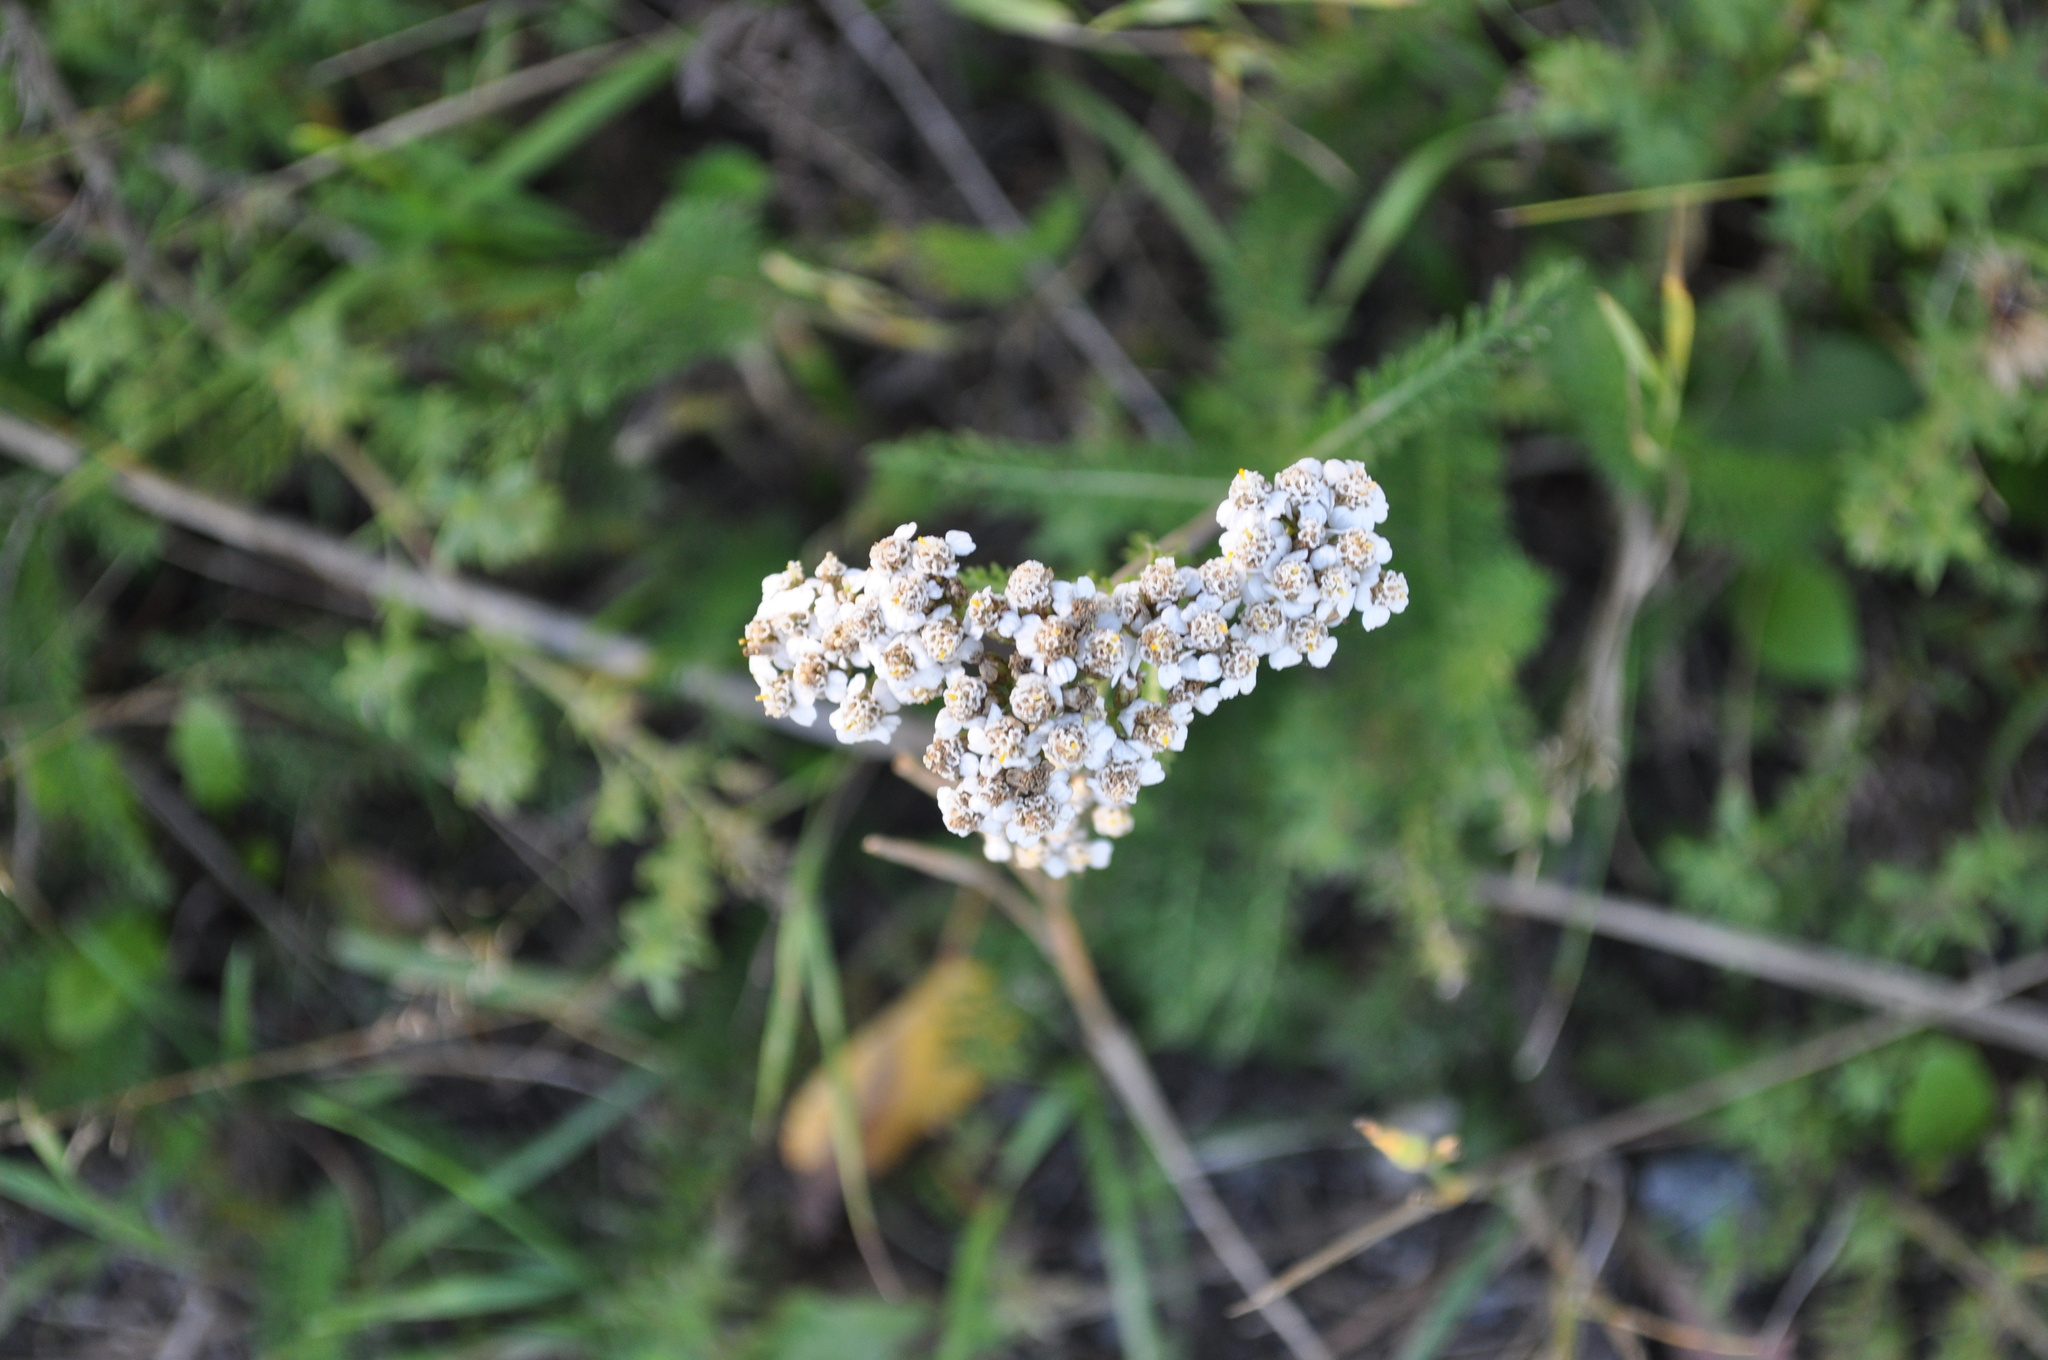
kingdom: Plantae
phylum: Tracheophyta
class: Magnoliopsida
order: Asterales
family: Asteraceae
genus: Achillea
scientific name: Achillea millefolium
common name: Yarrow
